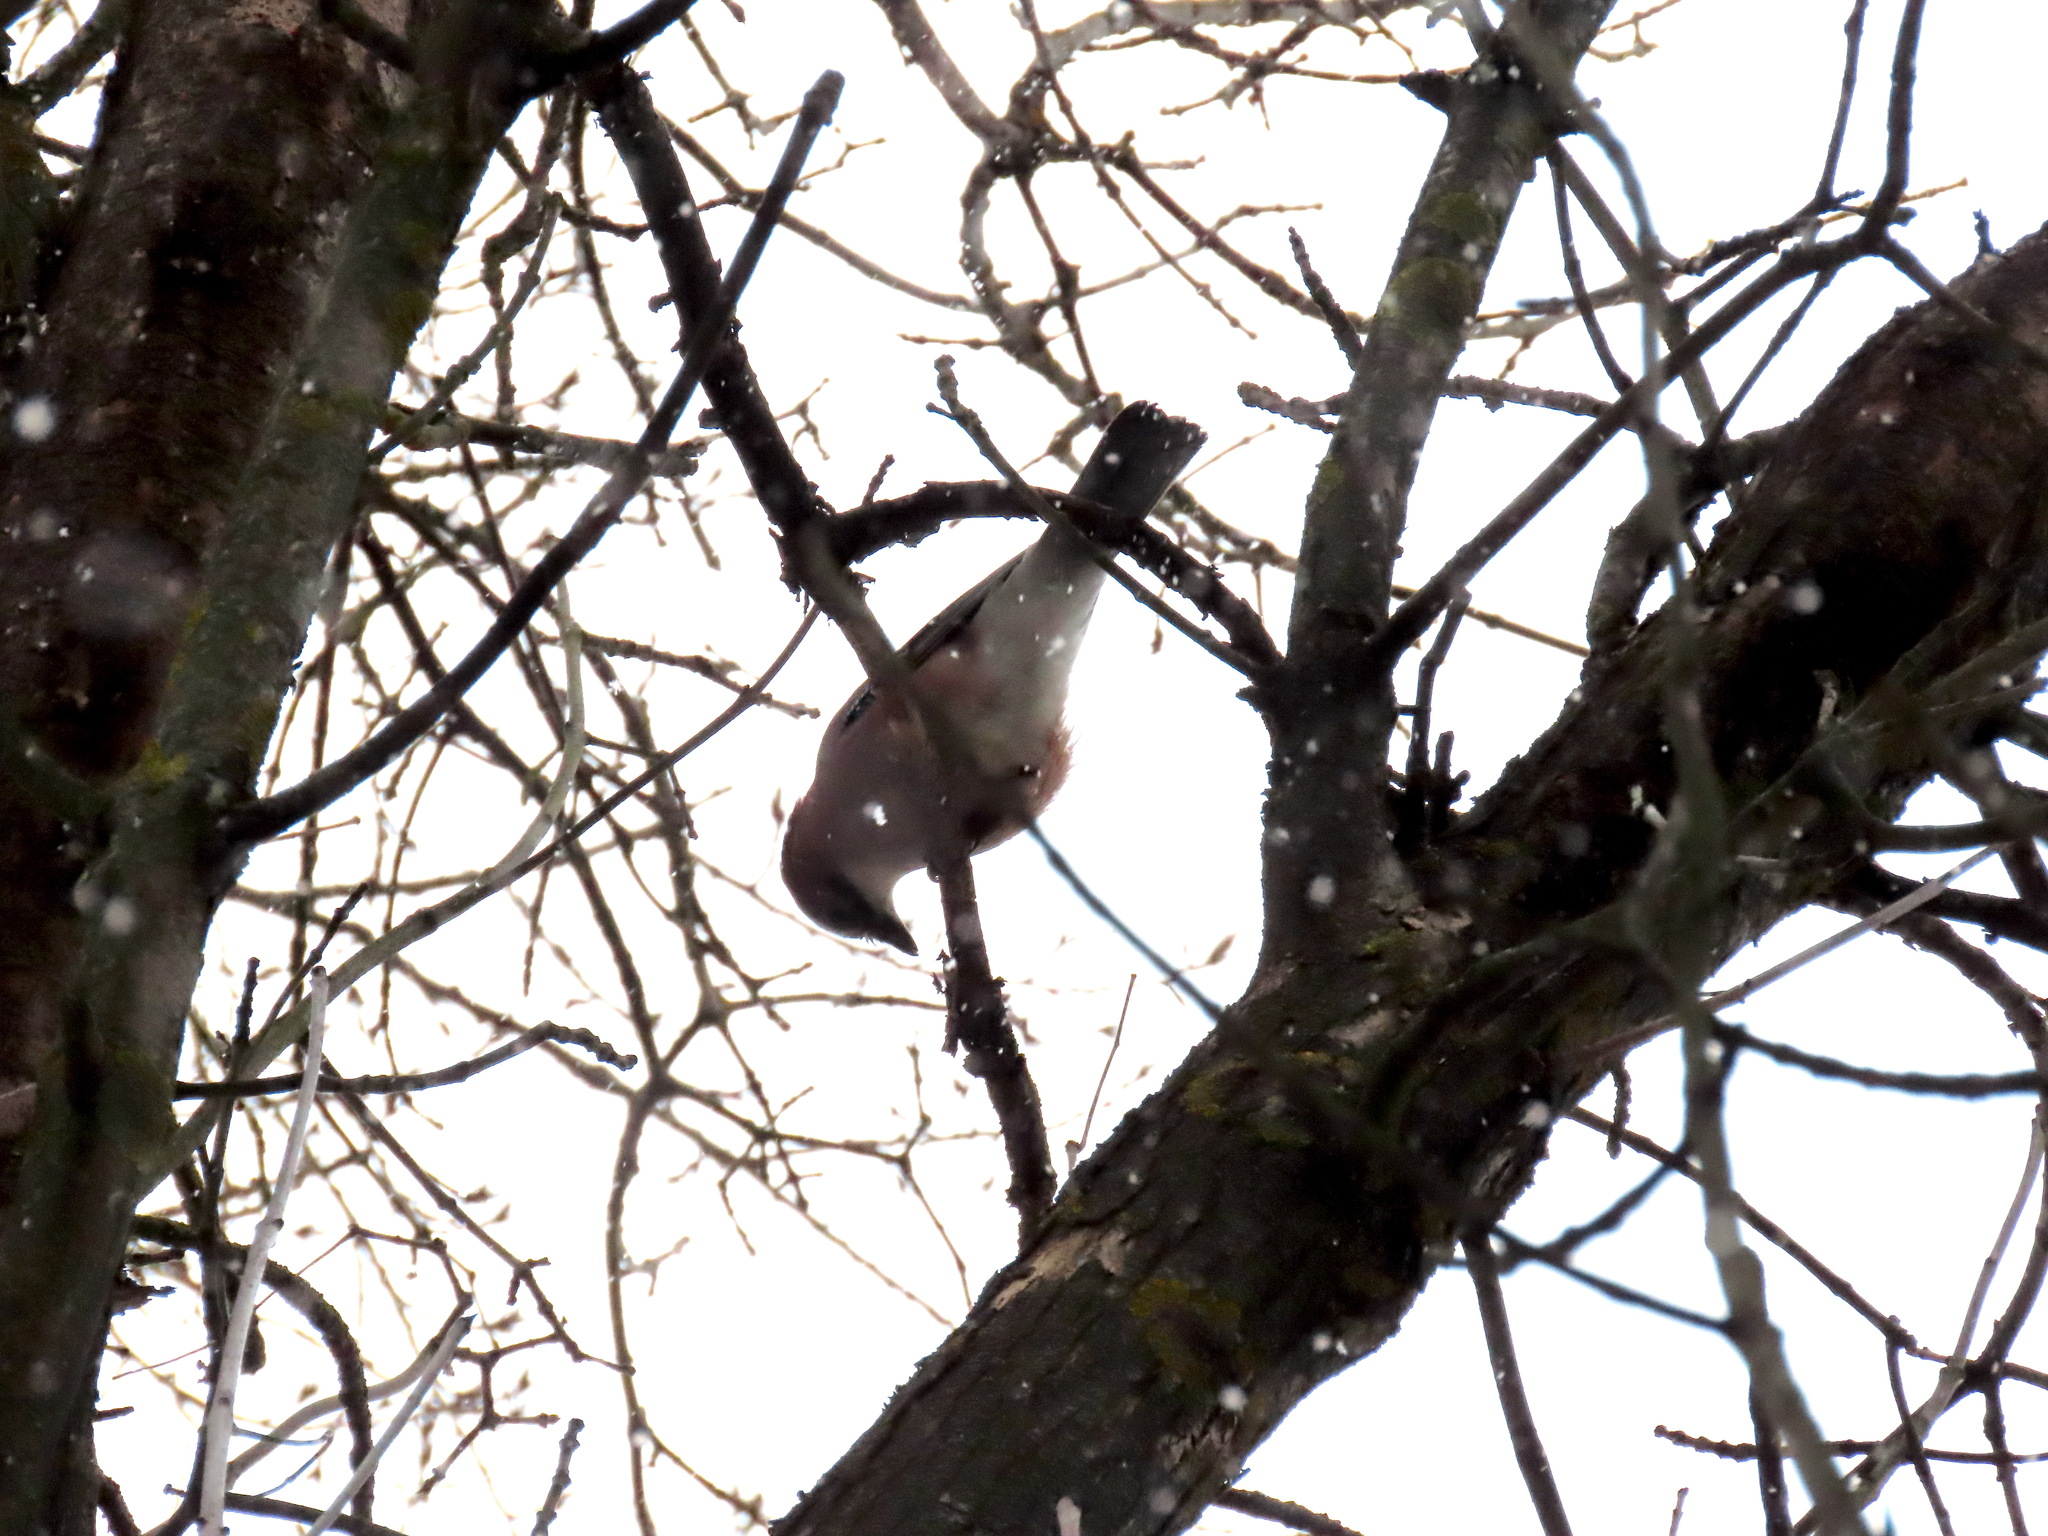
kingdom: Animalia
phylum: Chordata
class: Aves
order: Passeriformes
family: Corvidae
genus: Garrulus
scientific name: Garrulus glandarius
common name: Eurasian jay
